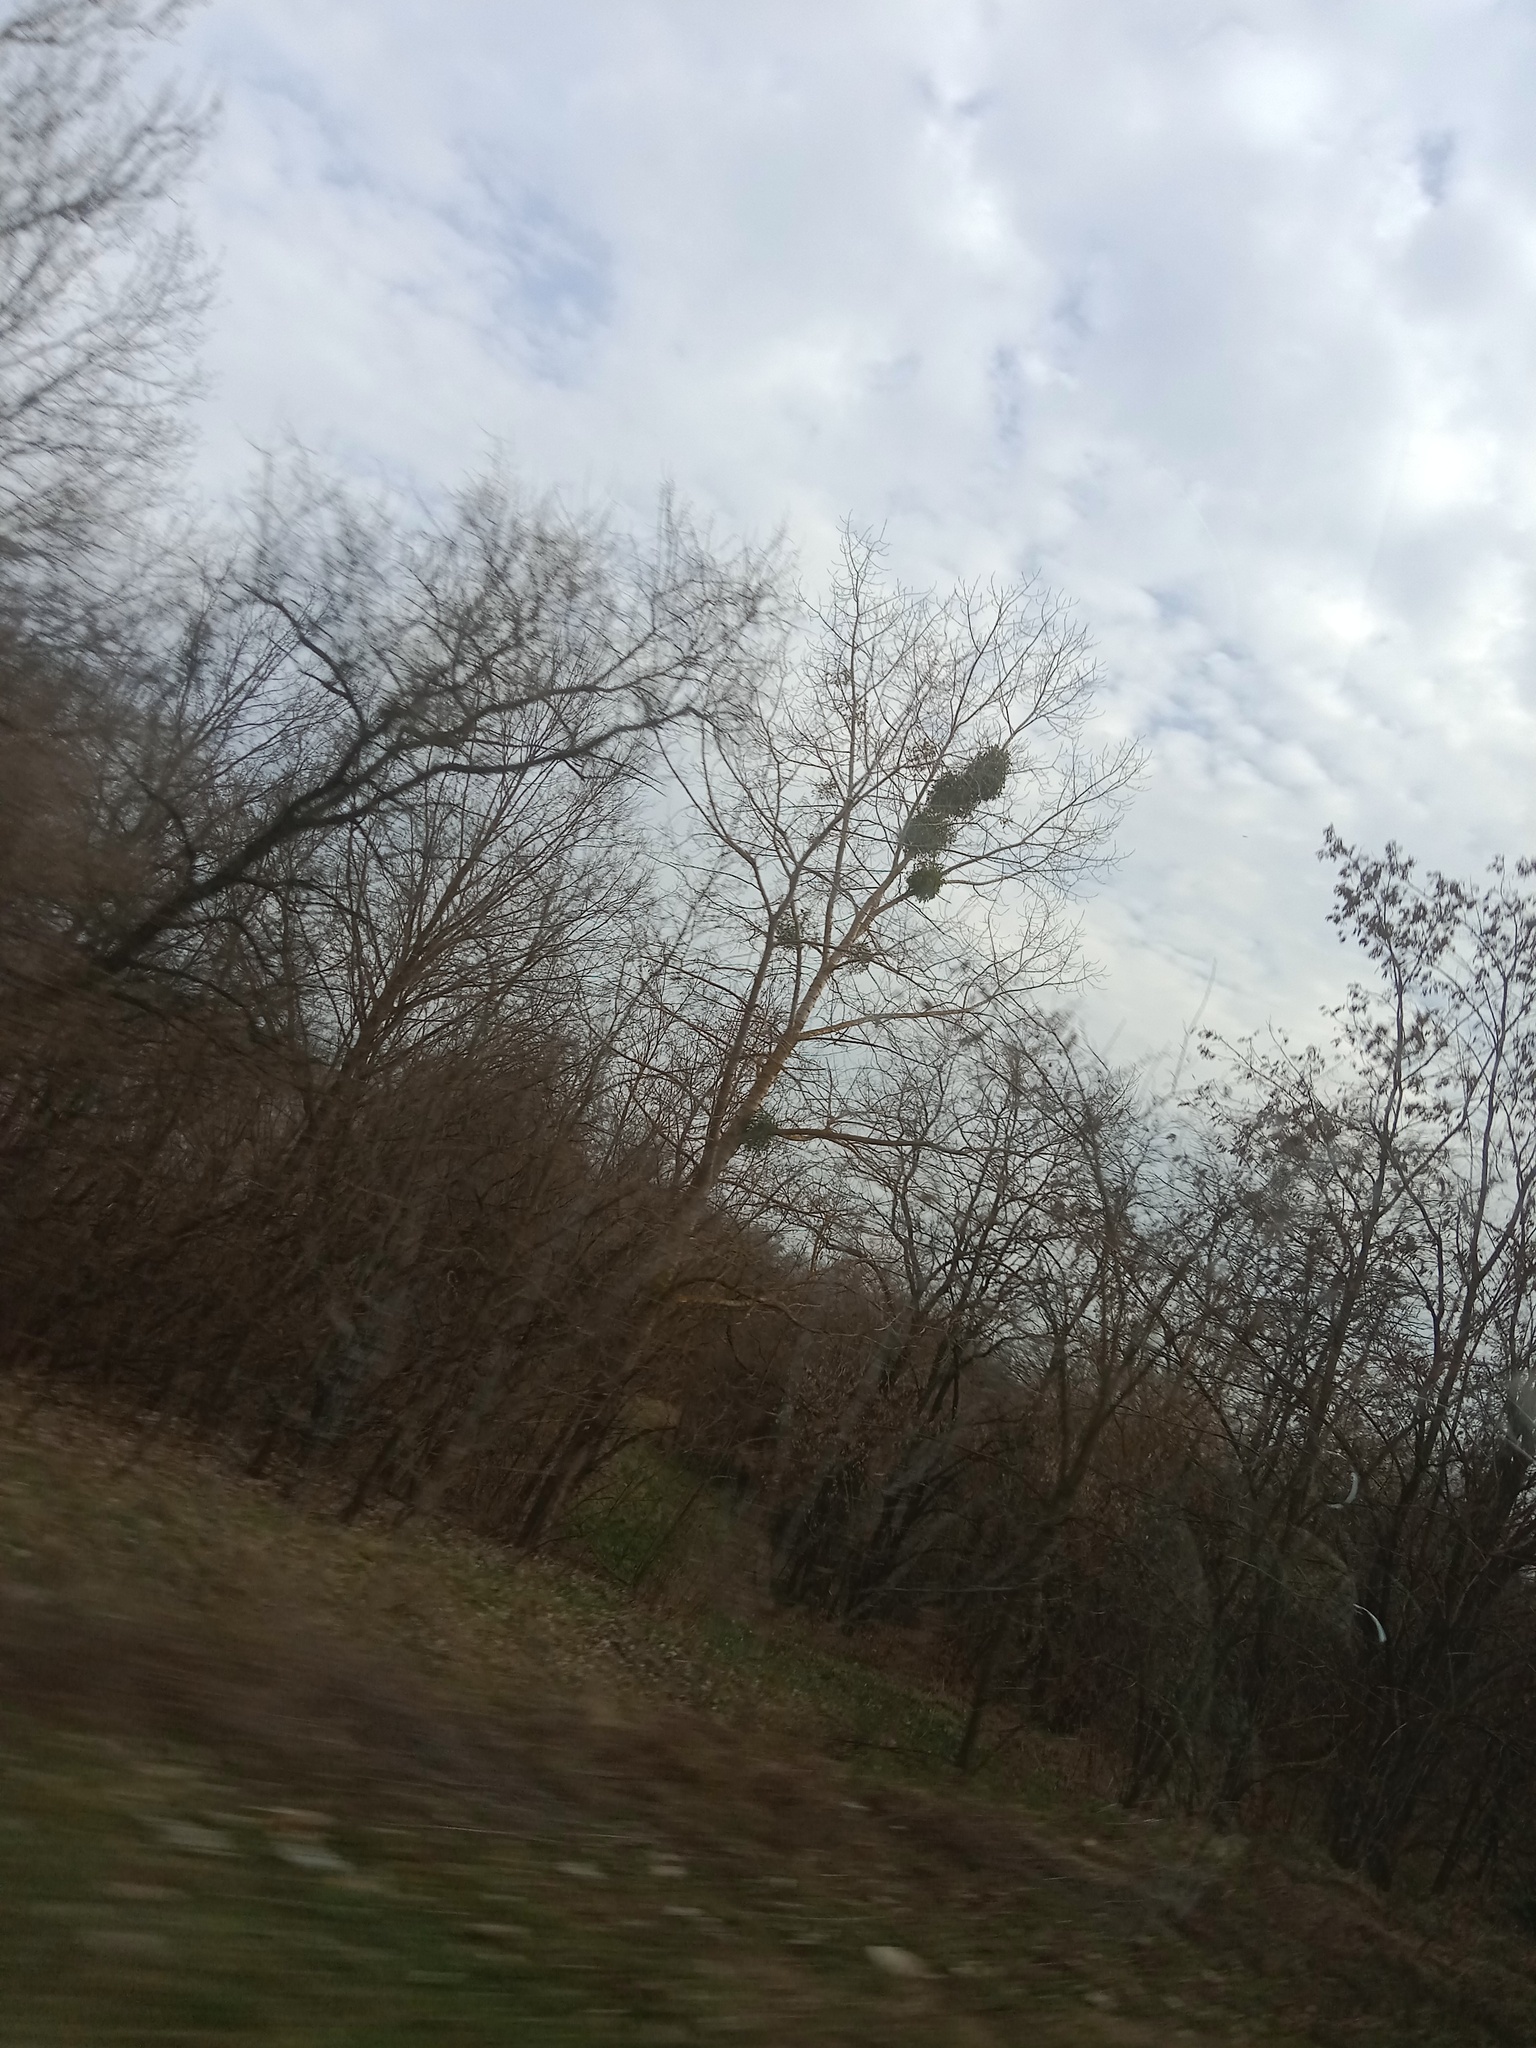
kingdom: Plantae
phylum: Tracheophyta
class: Magnoliopsida
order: Santalales
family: Viscaceae
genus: Viscum
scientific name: Viscum album
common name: Mistletoe
